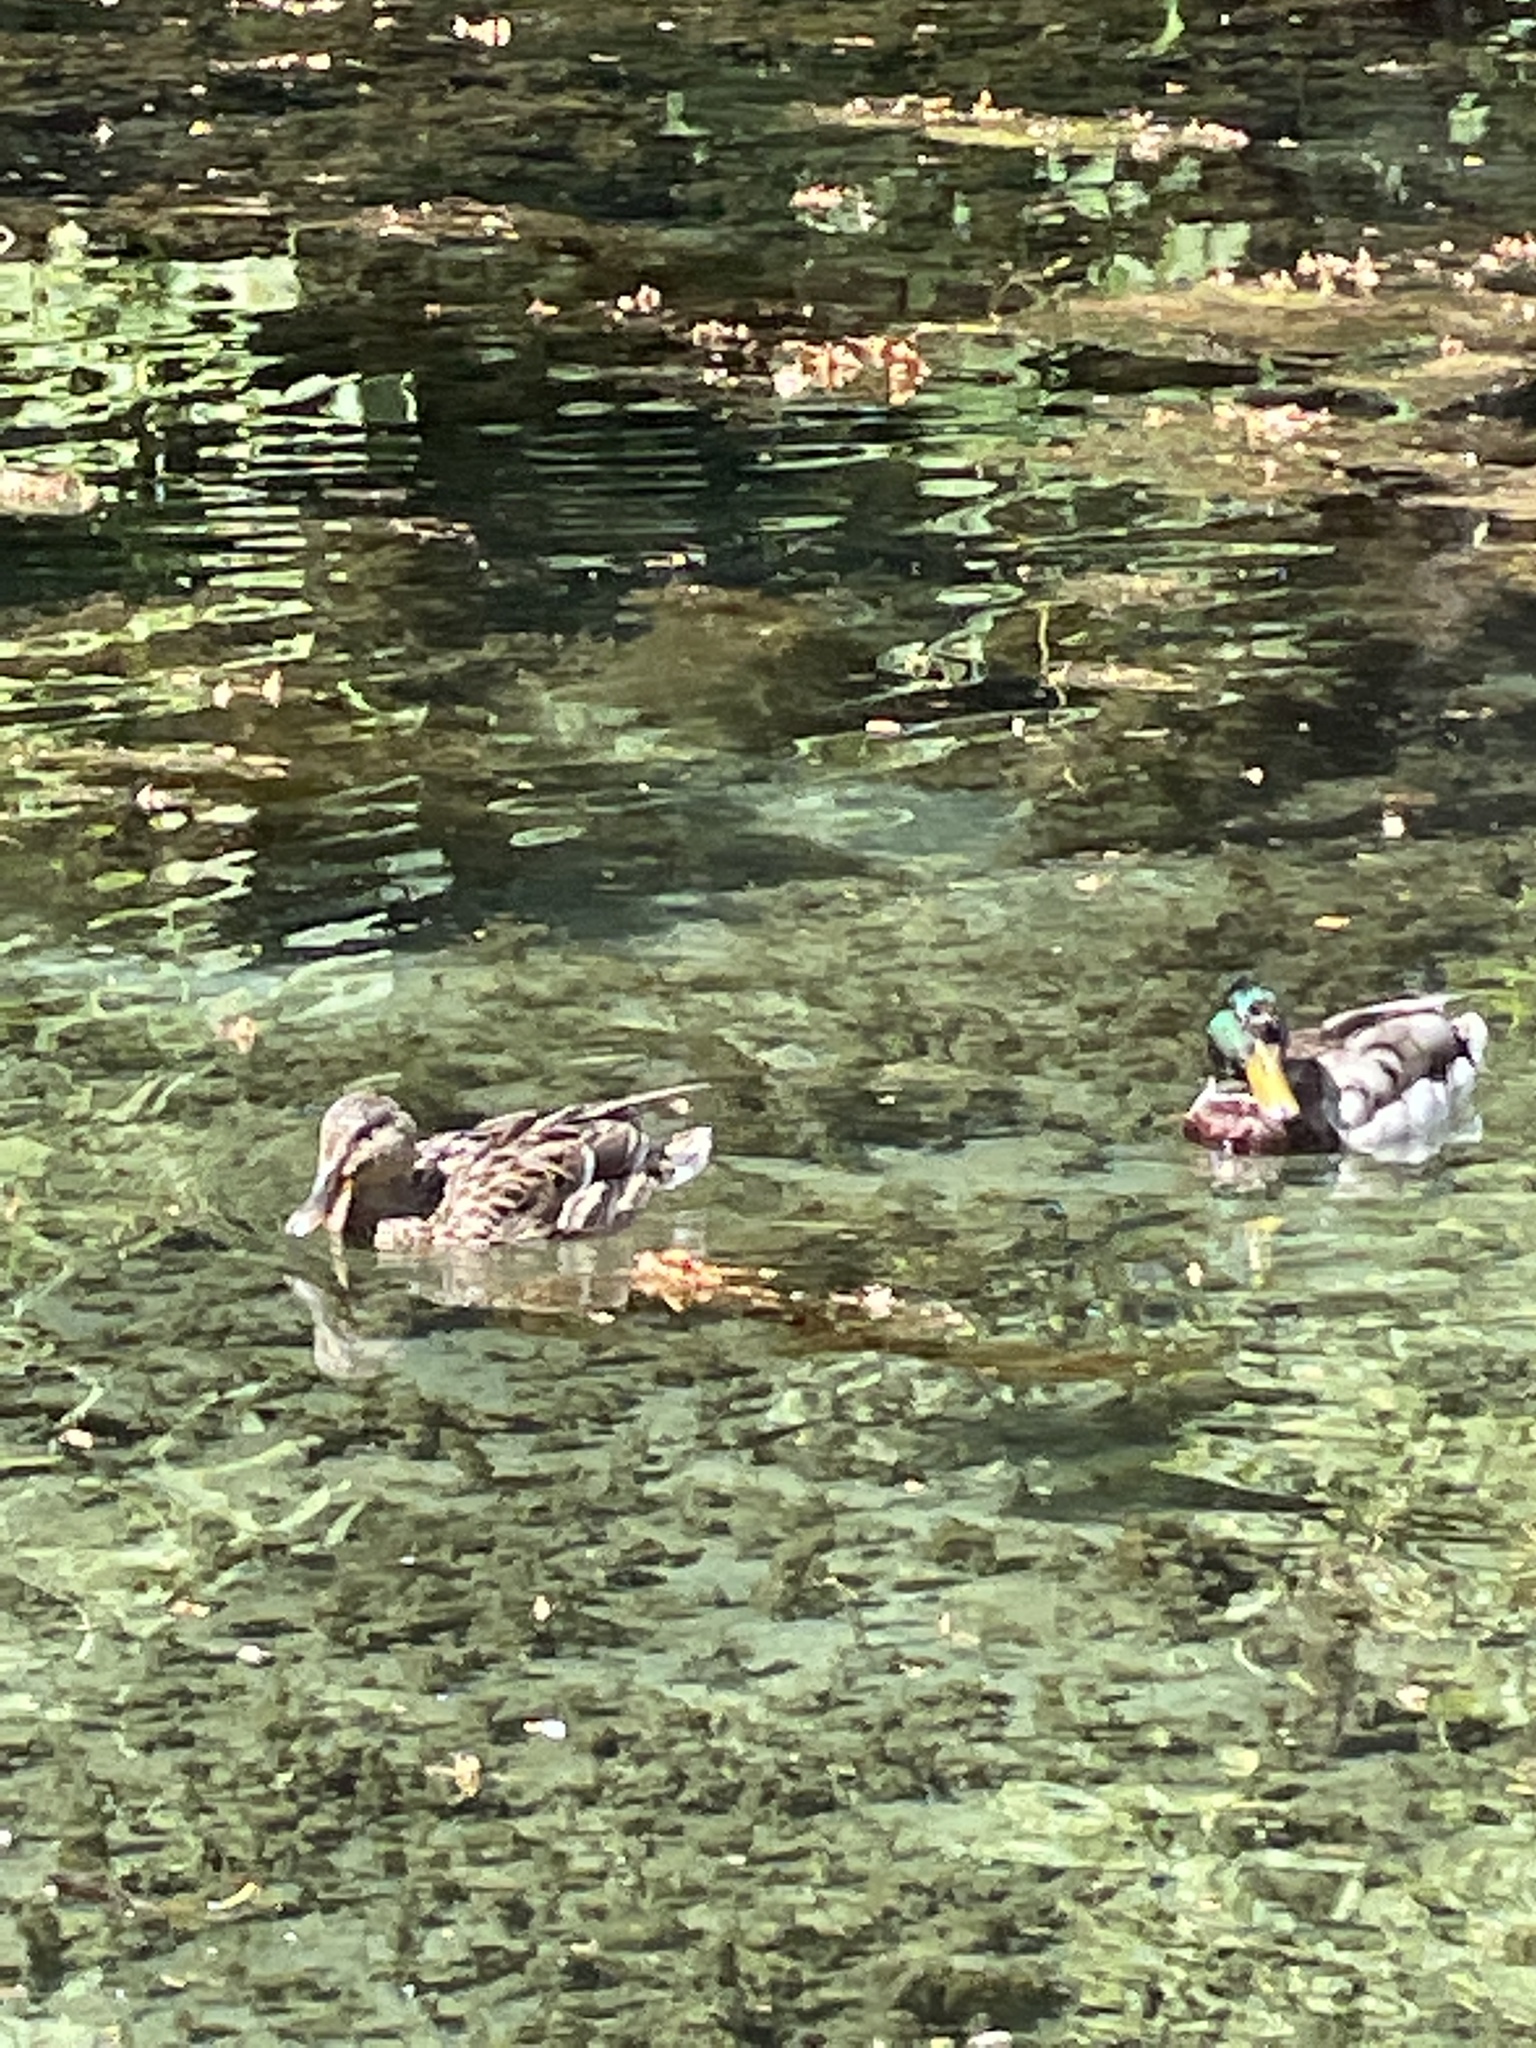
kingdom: Animalia
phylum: Chordata
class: Aves
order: Anseriformes
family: Anatidae
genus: Anas
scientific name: Anas platyrhynchos
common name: Mallard
